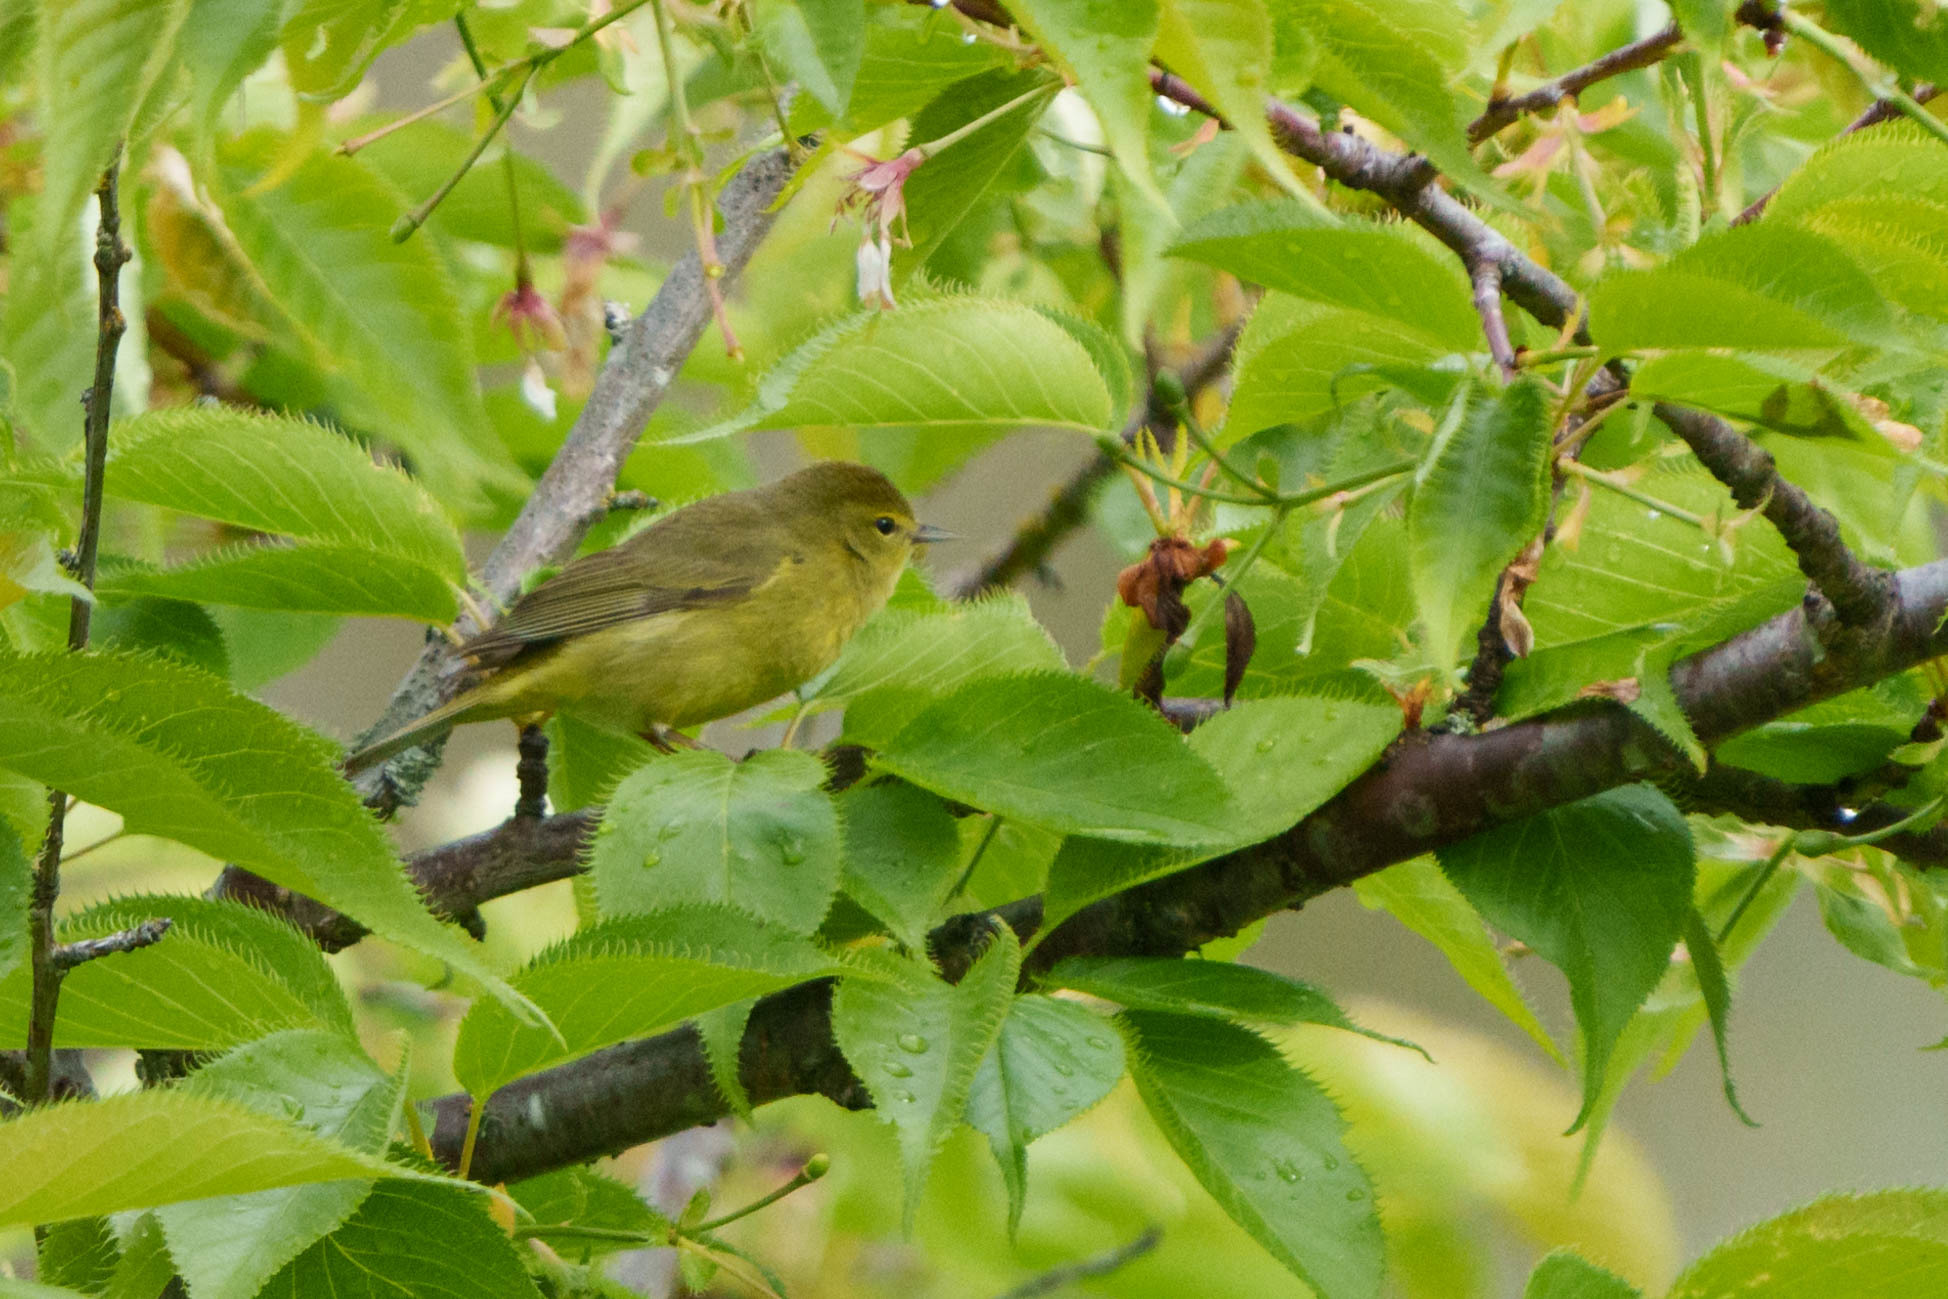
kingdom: Animalia
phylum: Chordata
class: Aves
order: Passeriformes
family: Parulidae
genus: Leiothlypis
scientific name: Leiothlypis celata
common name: Orange-crowned warbler
